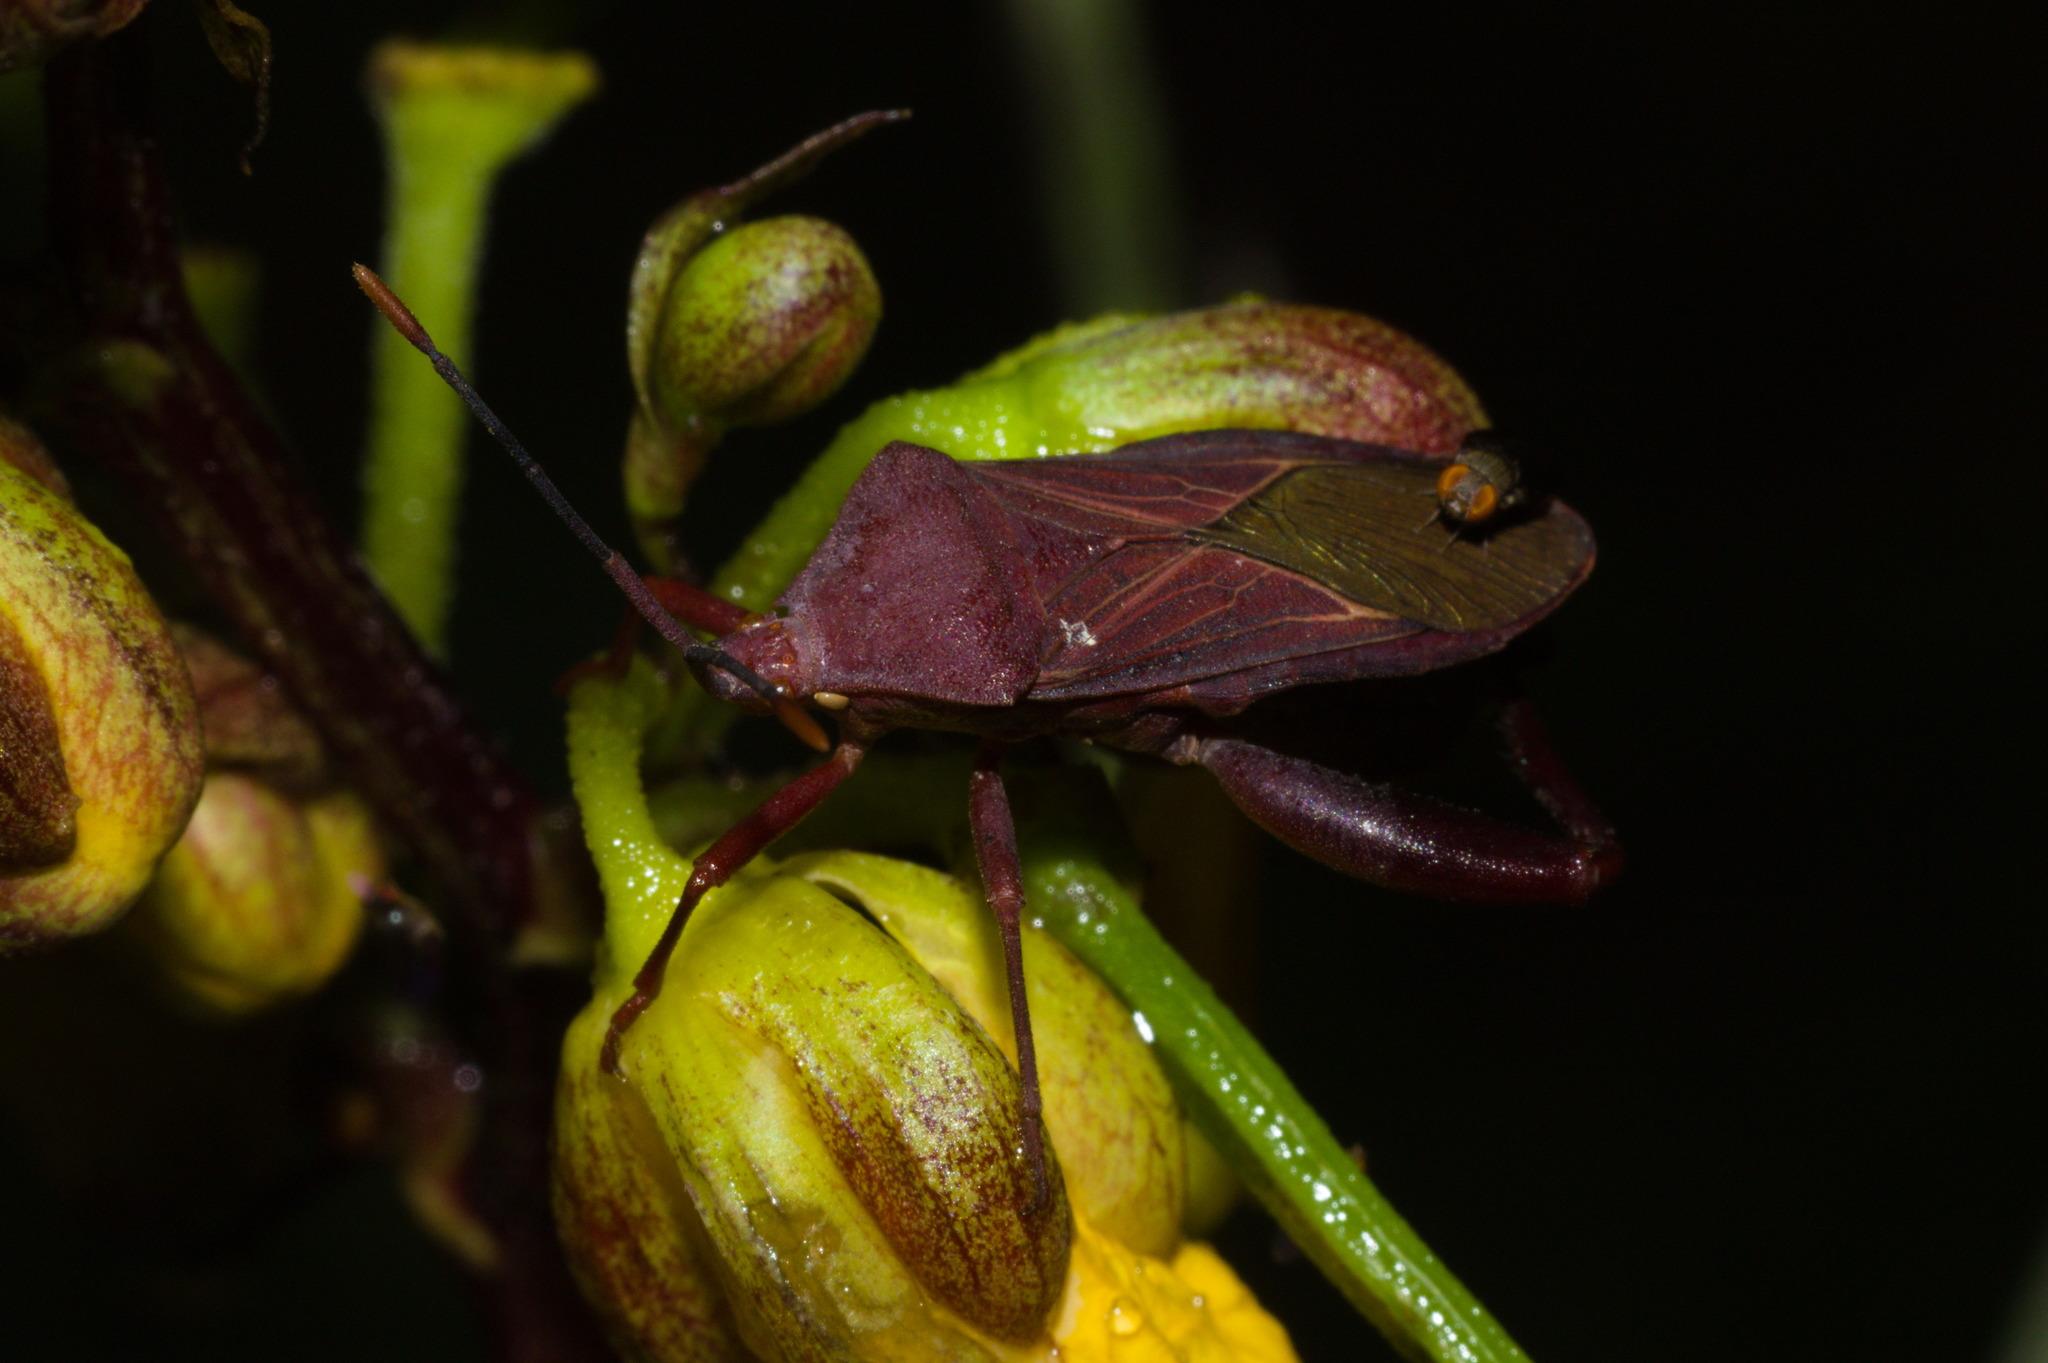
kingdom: Animalia
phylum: Arthropoda
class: Insecta
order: Hemiptera
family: Coreidae
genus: Athaumastus
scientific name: Athaumastus haematicus
